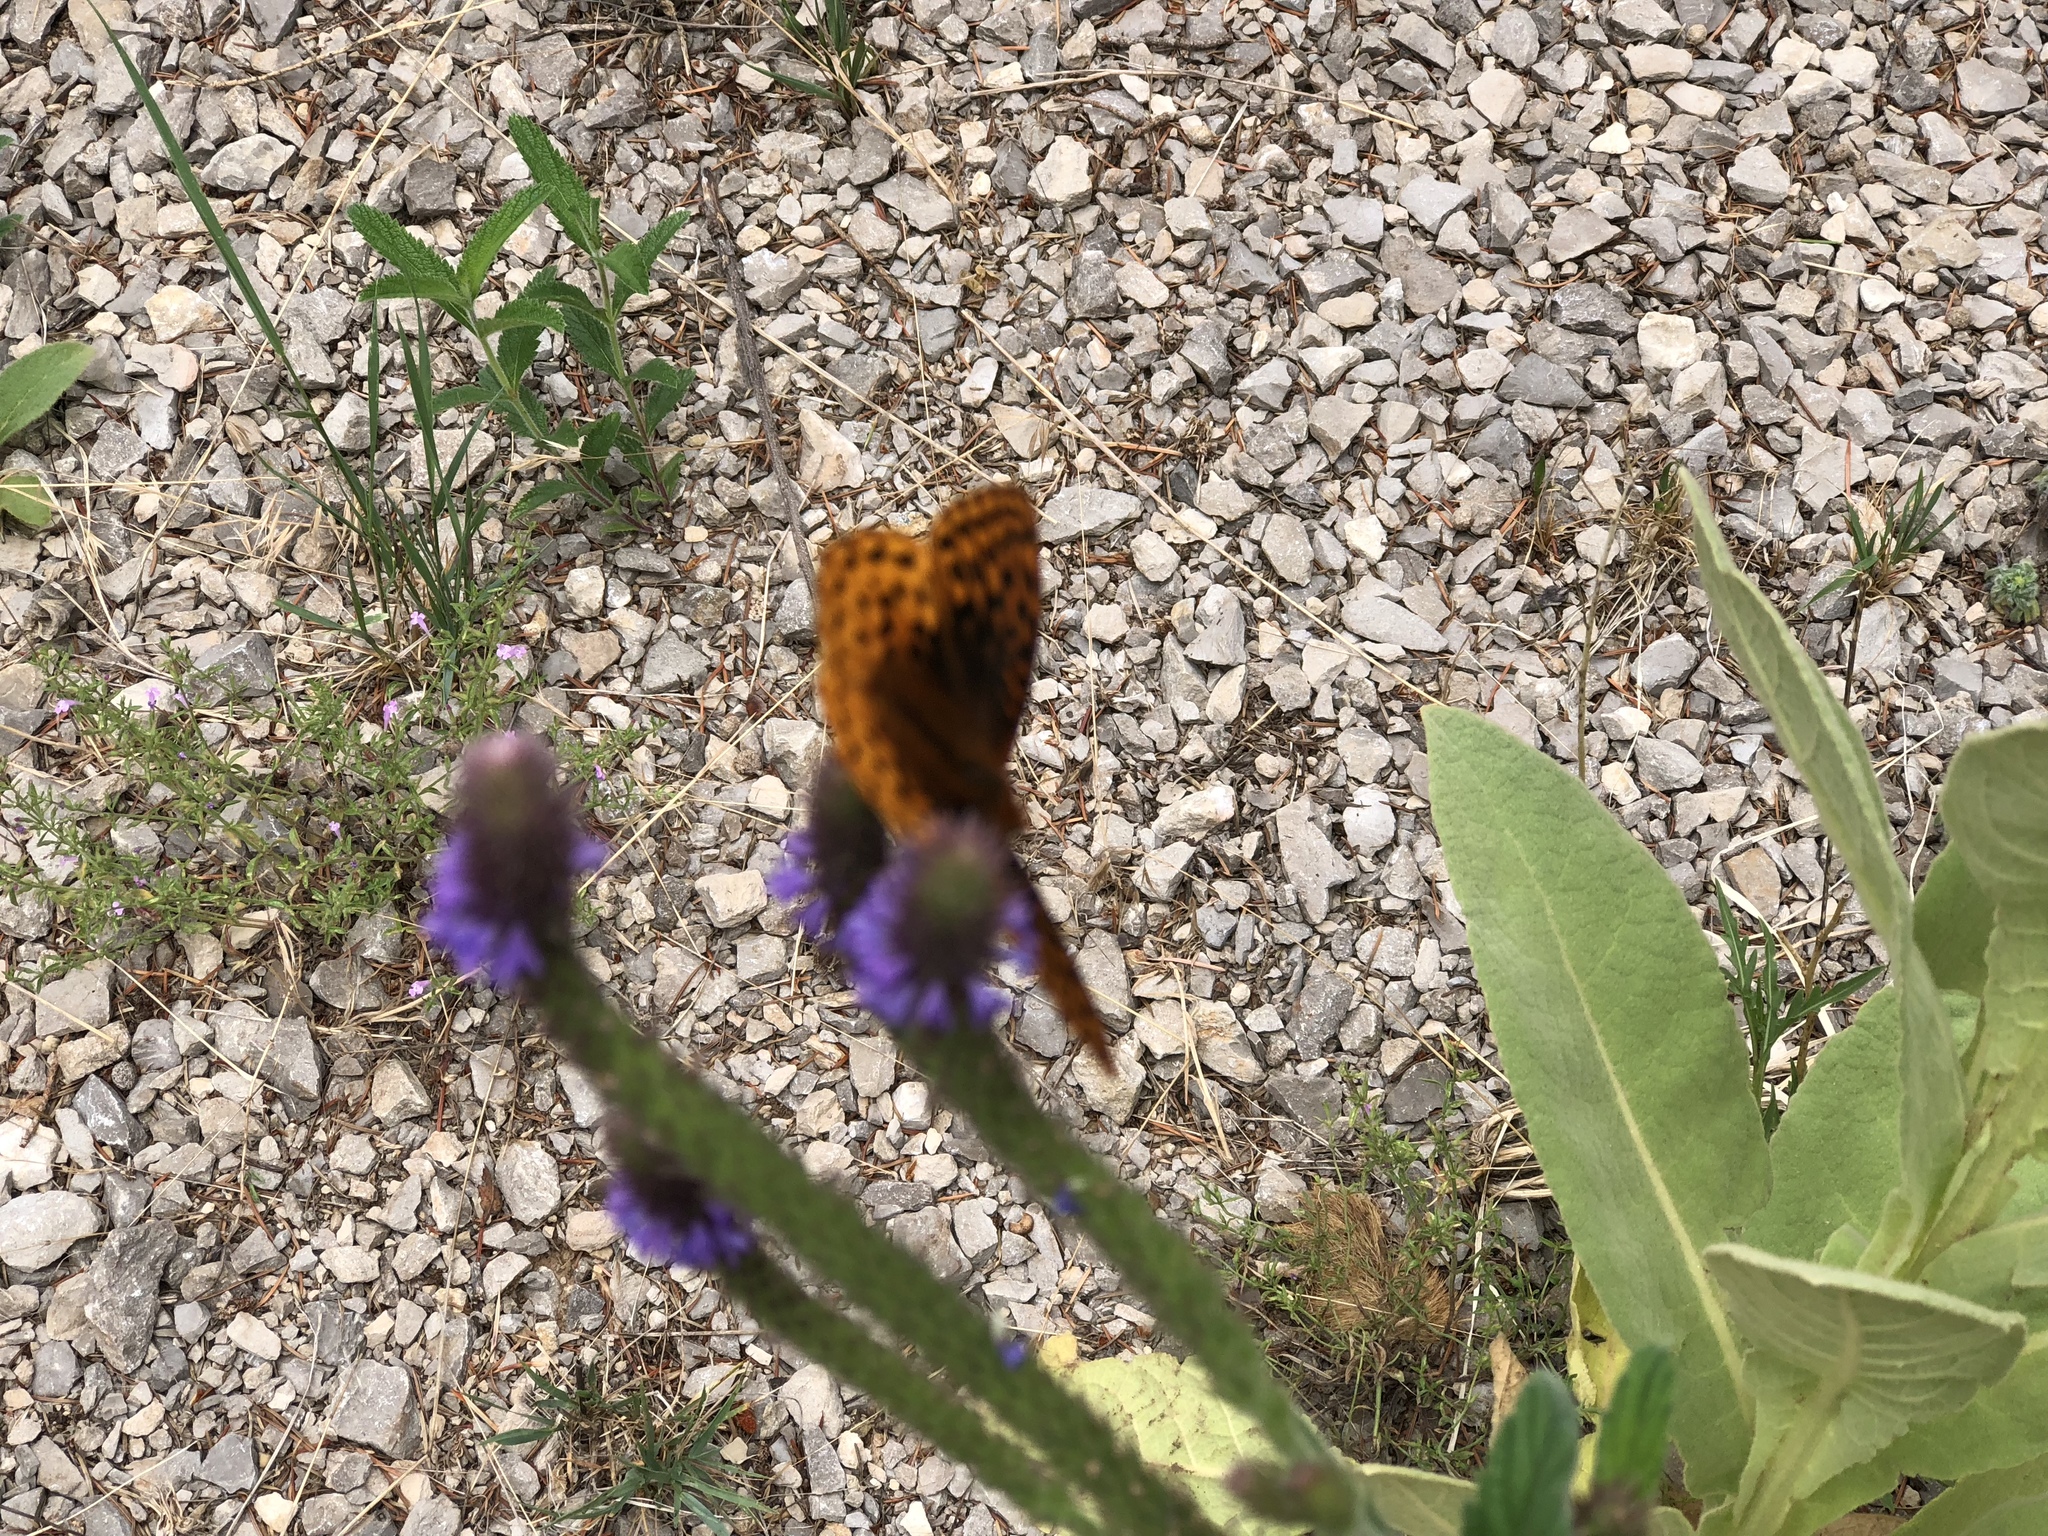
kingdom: Animalia
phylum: Arthropoda
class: Insecta
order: Lepidoptera
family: Nymphalidae
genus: Speyeria
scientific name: Speyeria atlantis
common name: Atlantis fritillary
